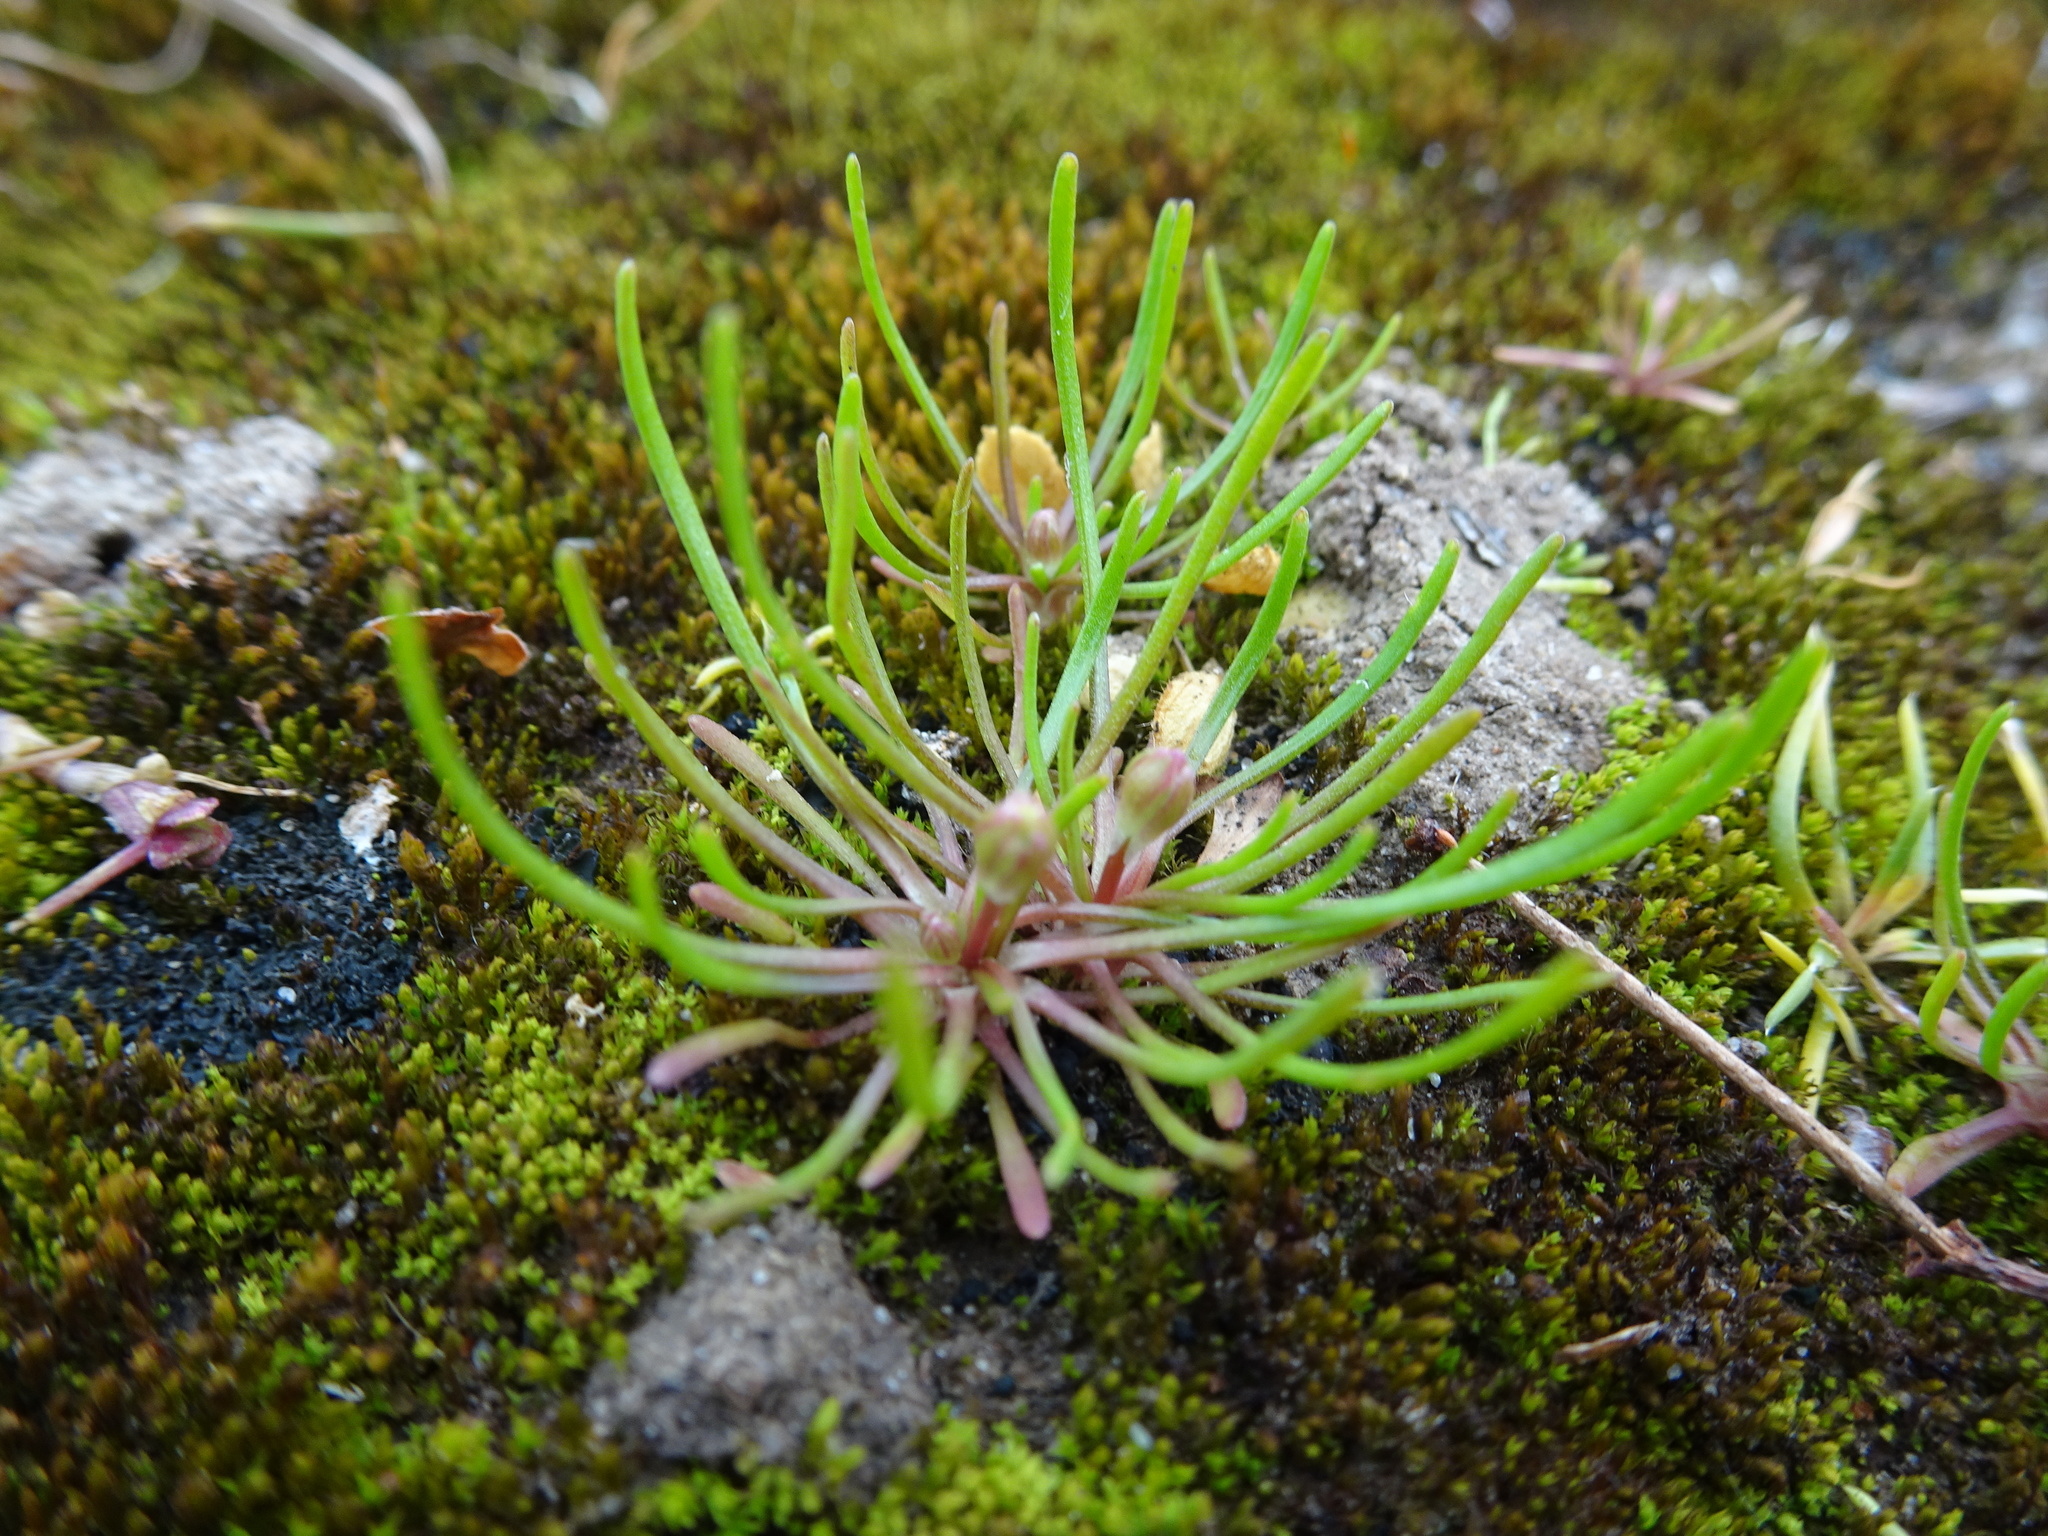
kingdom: Plantae
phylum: Tracheophyta
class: Magnoliopsida
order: Ranunculales
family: Ranunculaceae
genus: Myosurus
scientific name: Myosurus minimus
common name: Mousetail
